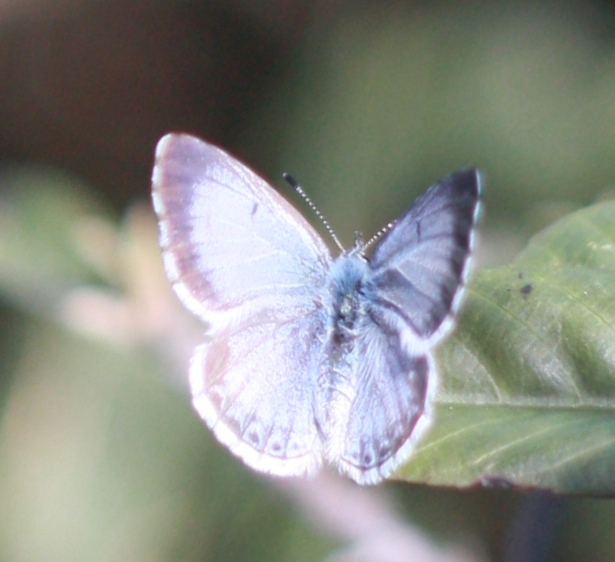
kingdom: Animalia
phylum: Arthropoda
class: Insecta
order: Lepidoptera
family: Lycaenidae
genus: Celastrina
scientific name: Celastrina ladon
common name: Spring azure
